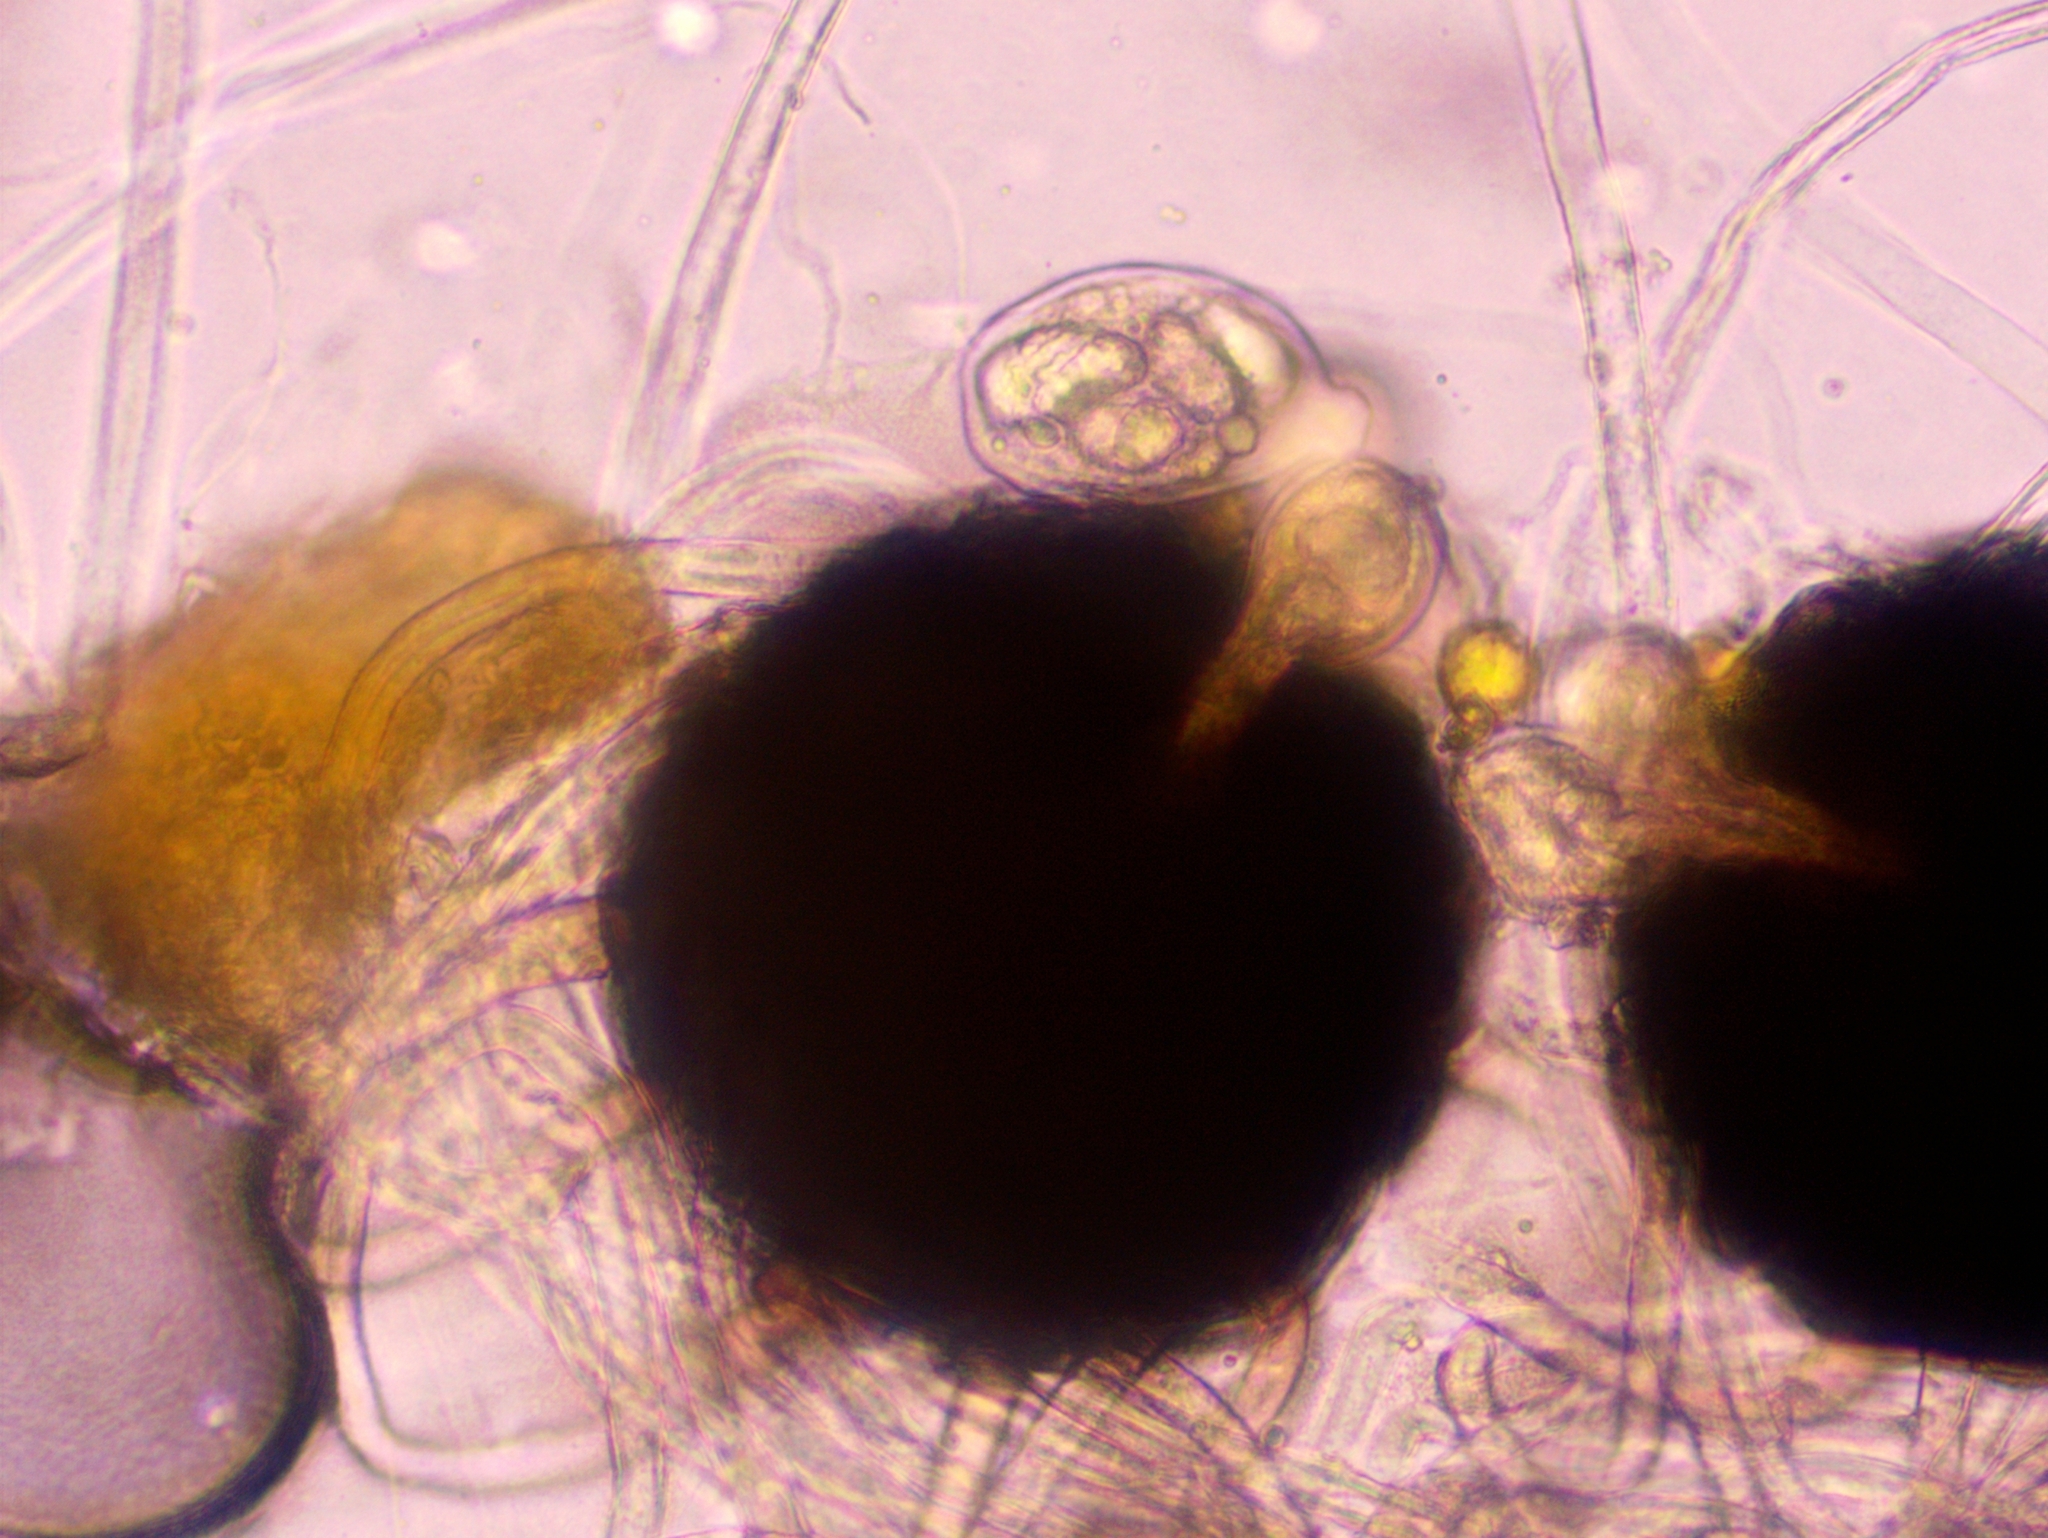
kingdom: Fungi
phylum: Ascomycota
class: Leotiomycetes
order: Helotiales
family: Erysiphaceae
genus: Erysiphe
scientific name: Erysiphe astragali
